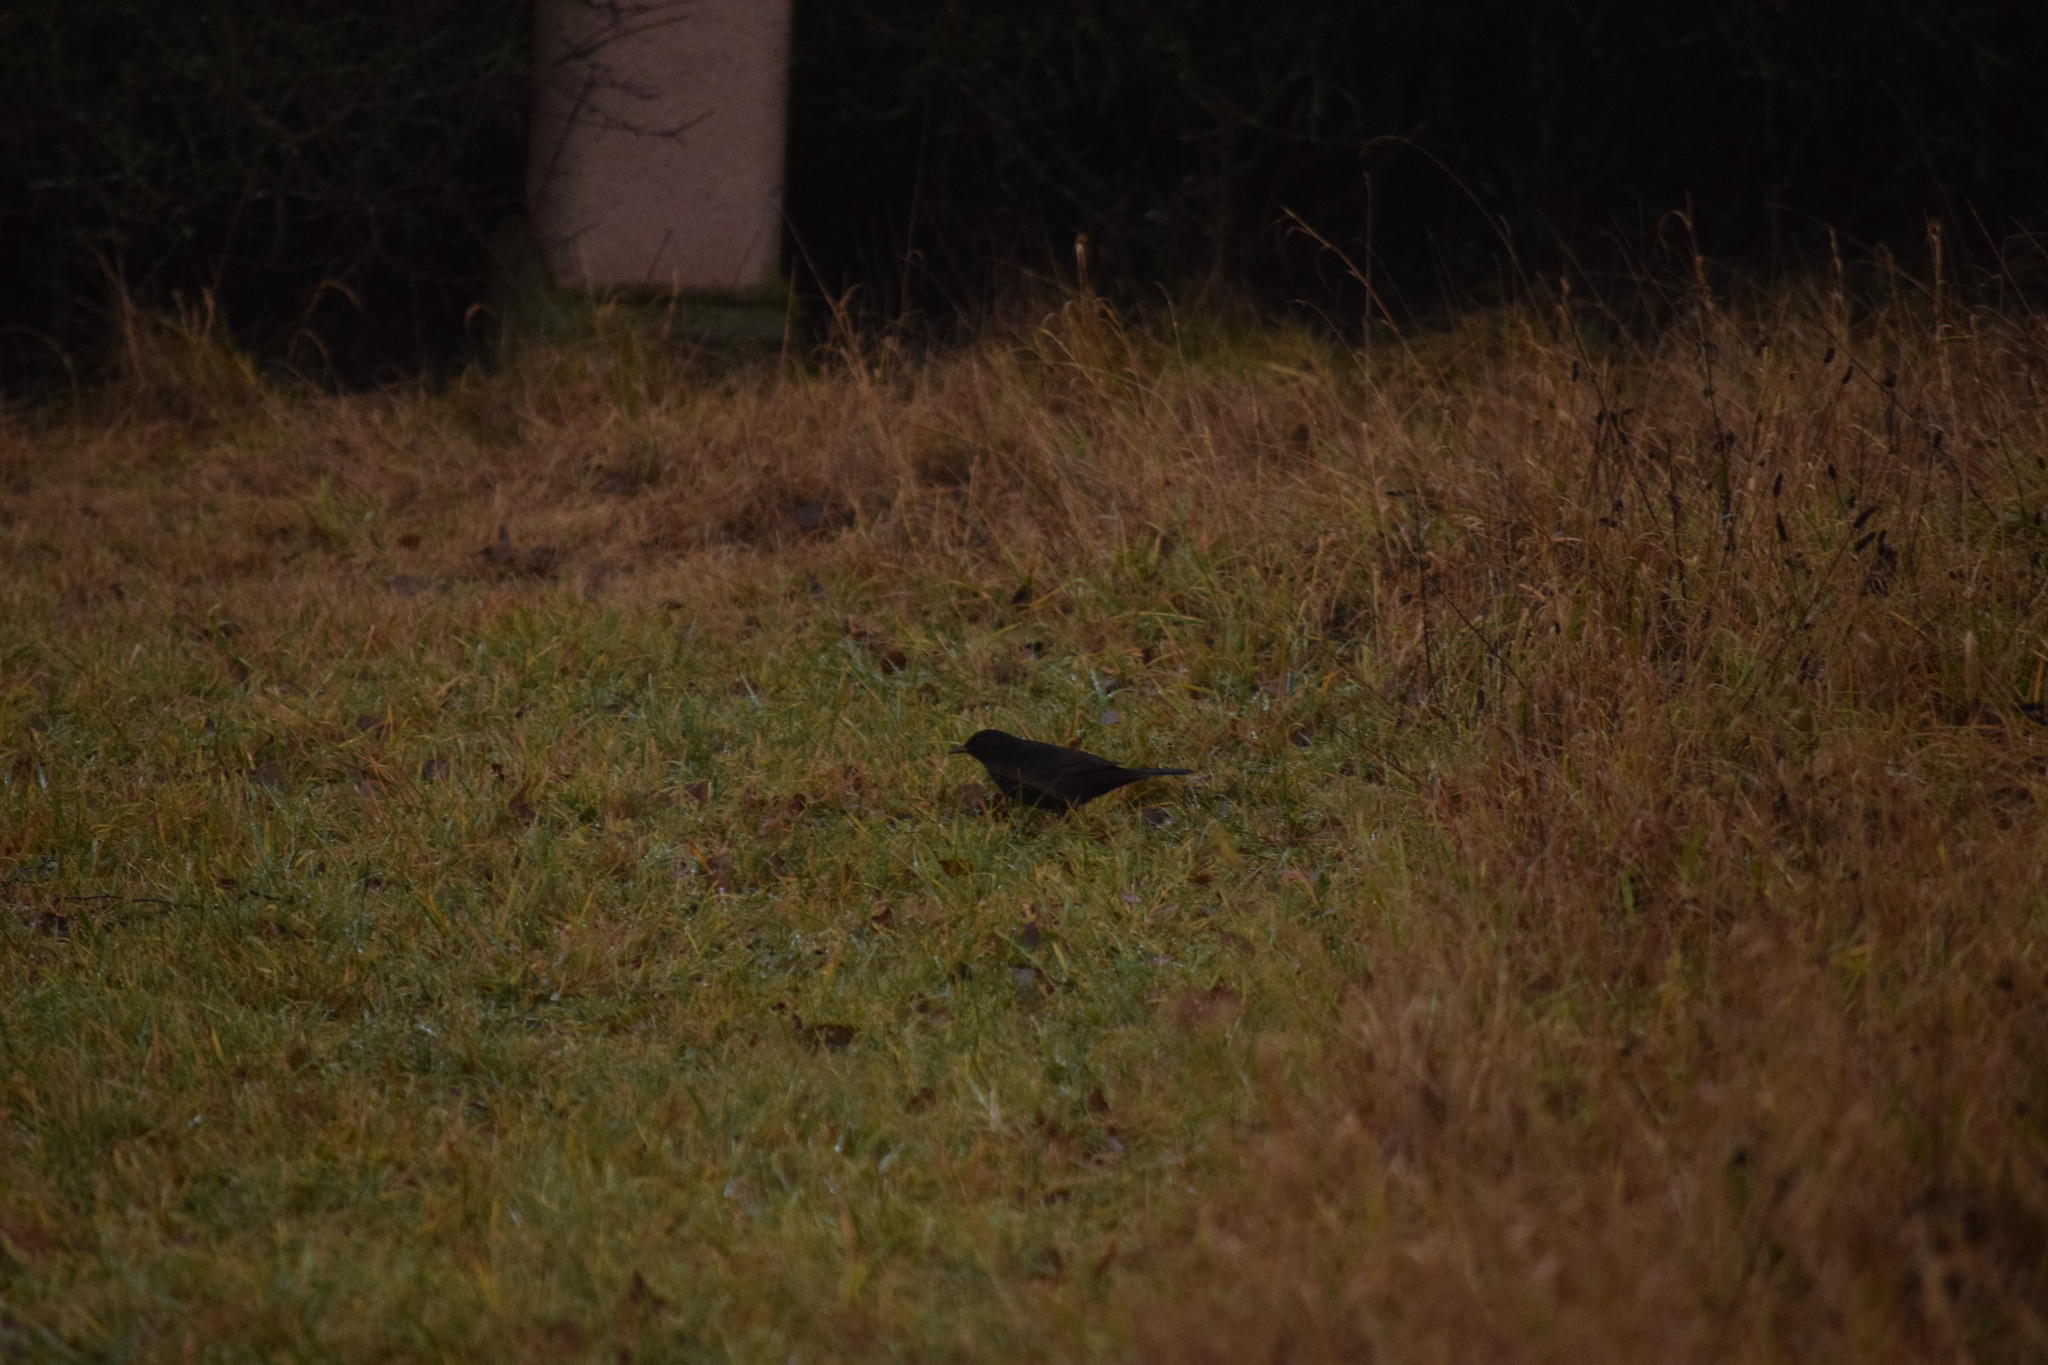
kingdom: Animalia
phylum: Chordata
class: Aves
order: Passeriformes
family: Turdidae
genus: Turdus
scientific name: Turdus merula
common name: Common blackbird
